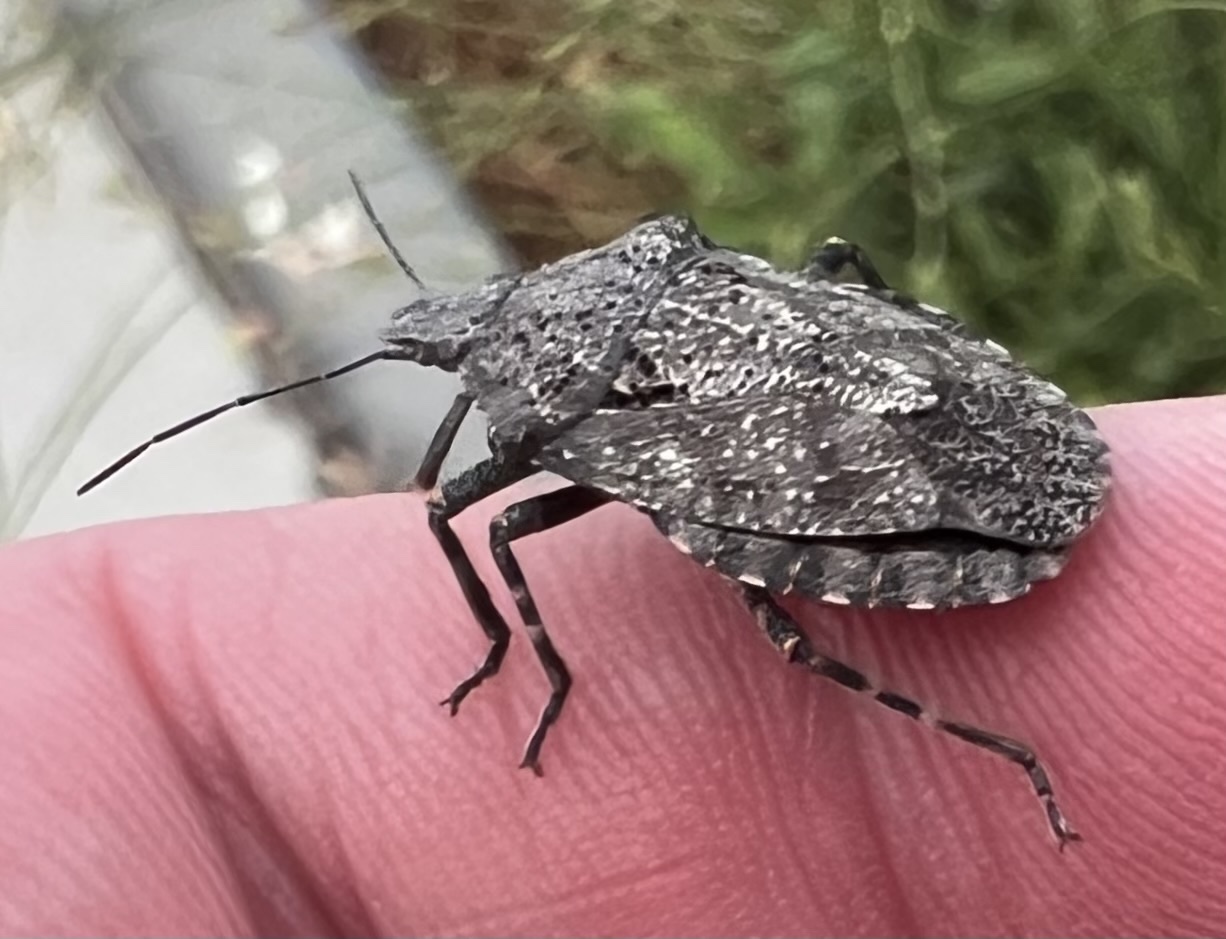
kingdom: Animalia
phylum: Arthropoda
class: Insecta
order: Hemiptera
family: Pentatomidae
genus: Brochymena
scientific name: Brochymena arborea
